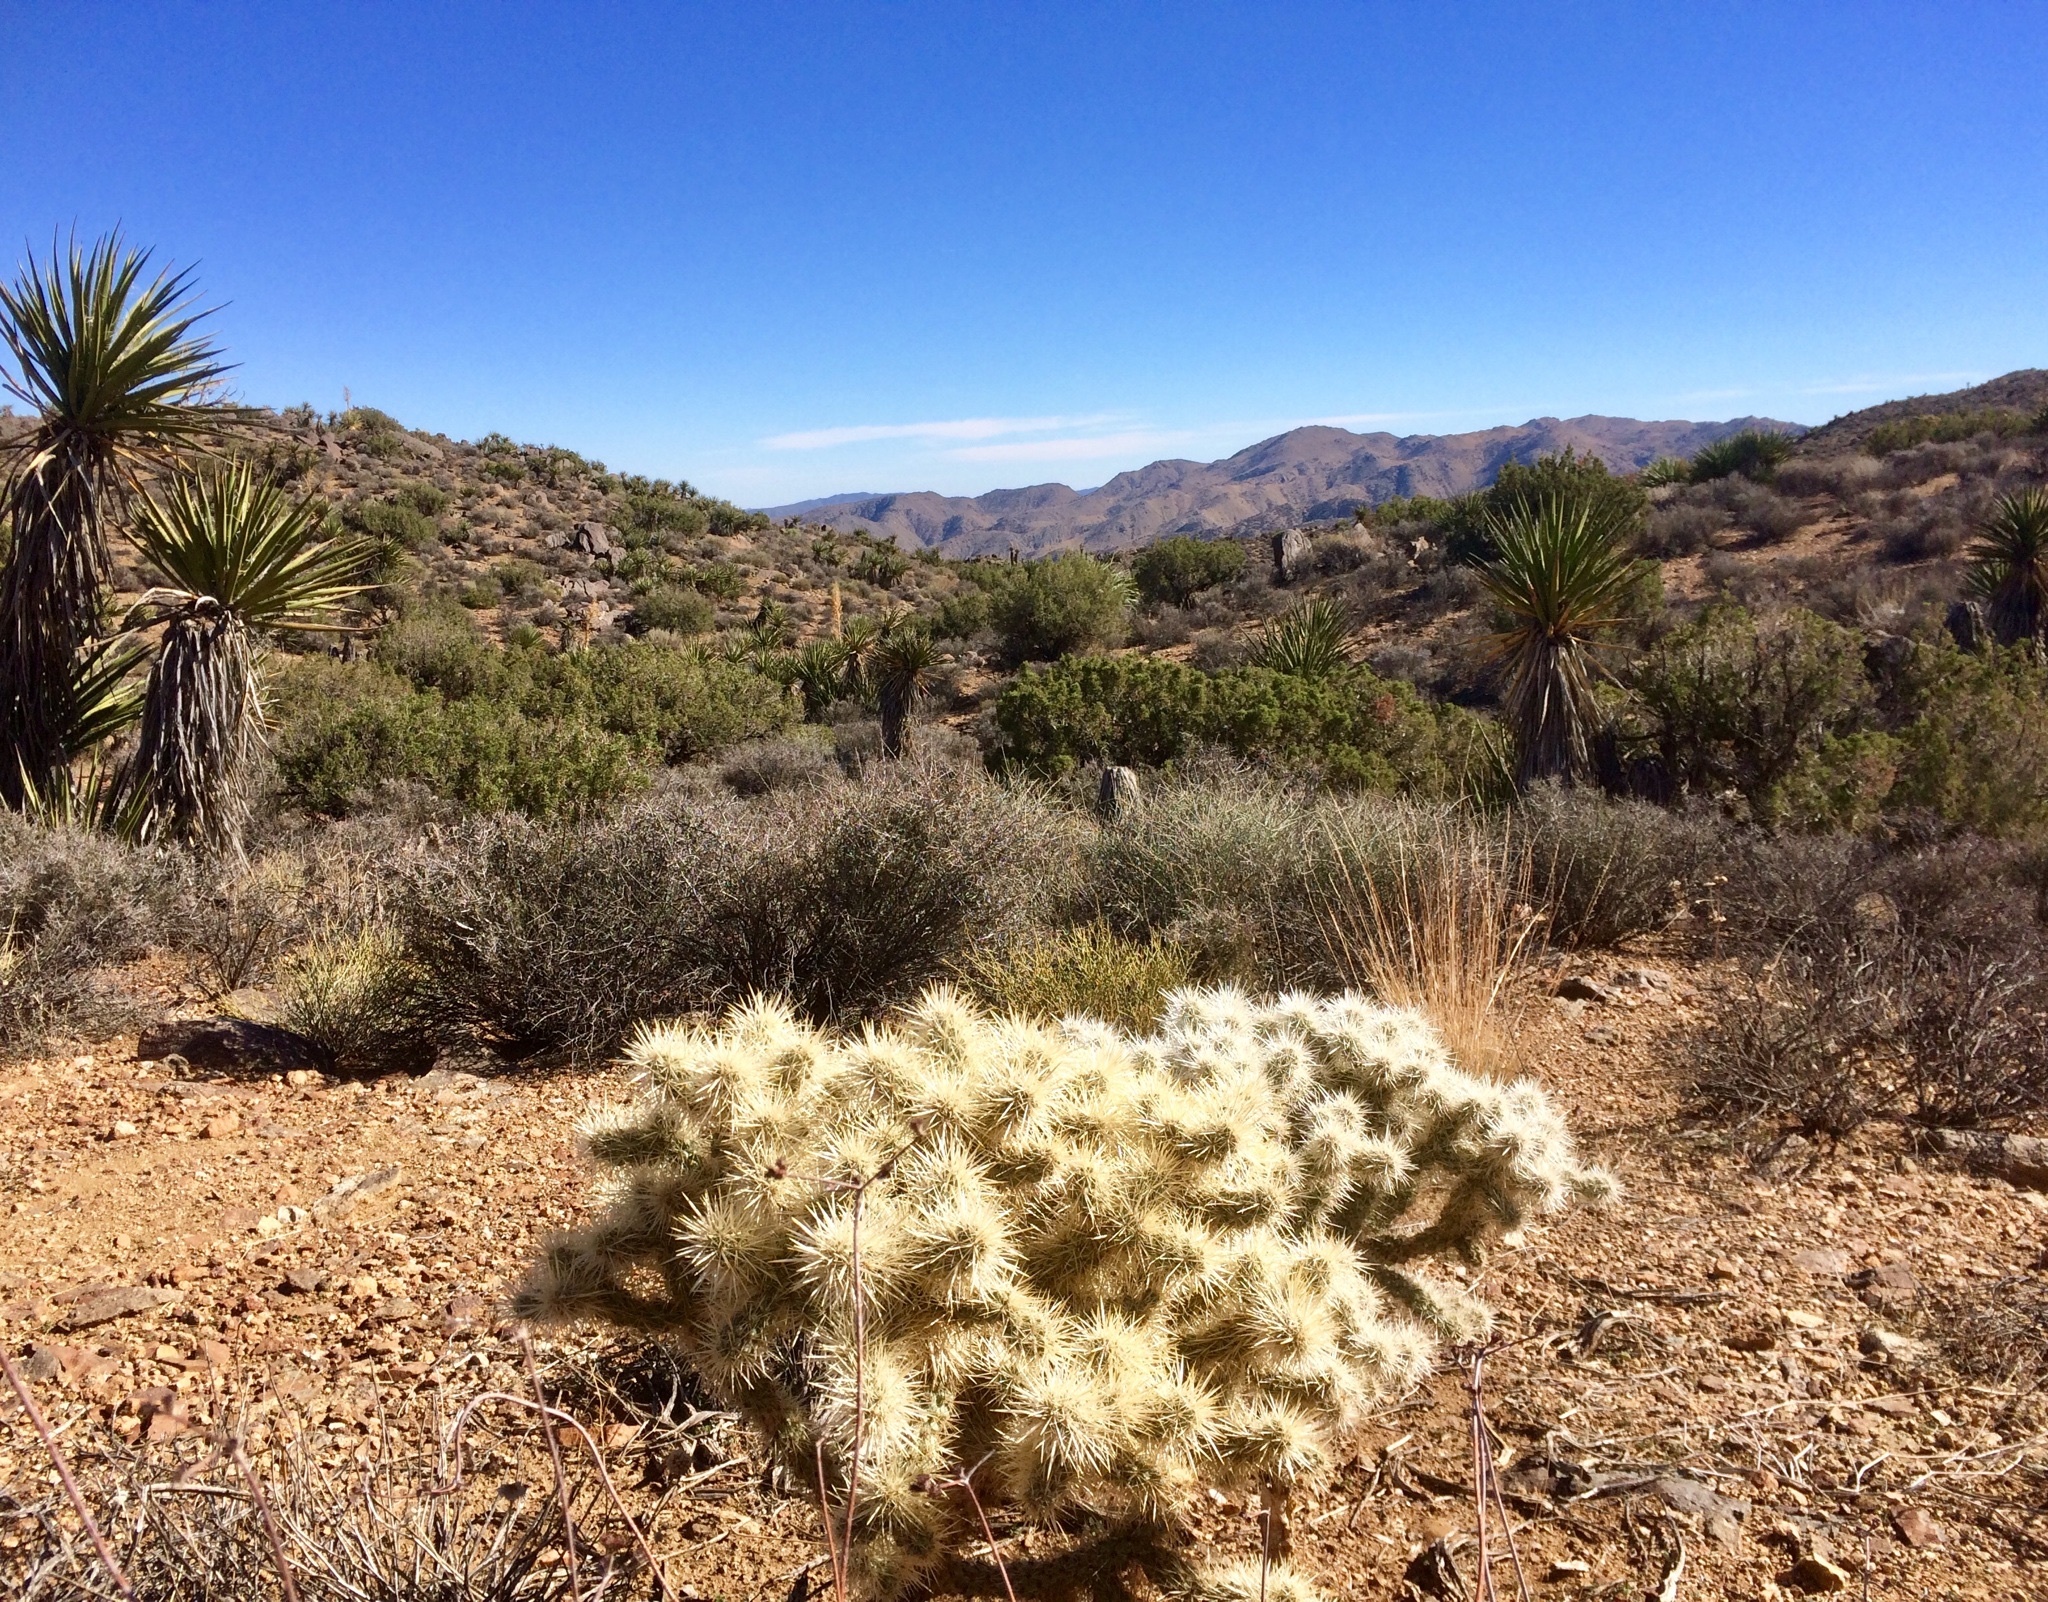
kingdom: Plantae
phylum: Tracheophyta
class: Magnoliopsida
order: Caryophyllales
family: Cactaceae
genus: Cylindropuntia
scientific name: Cylindropuntia echinocarpa
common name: Ground cholla
